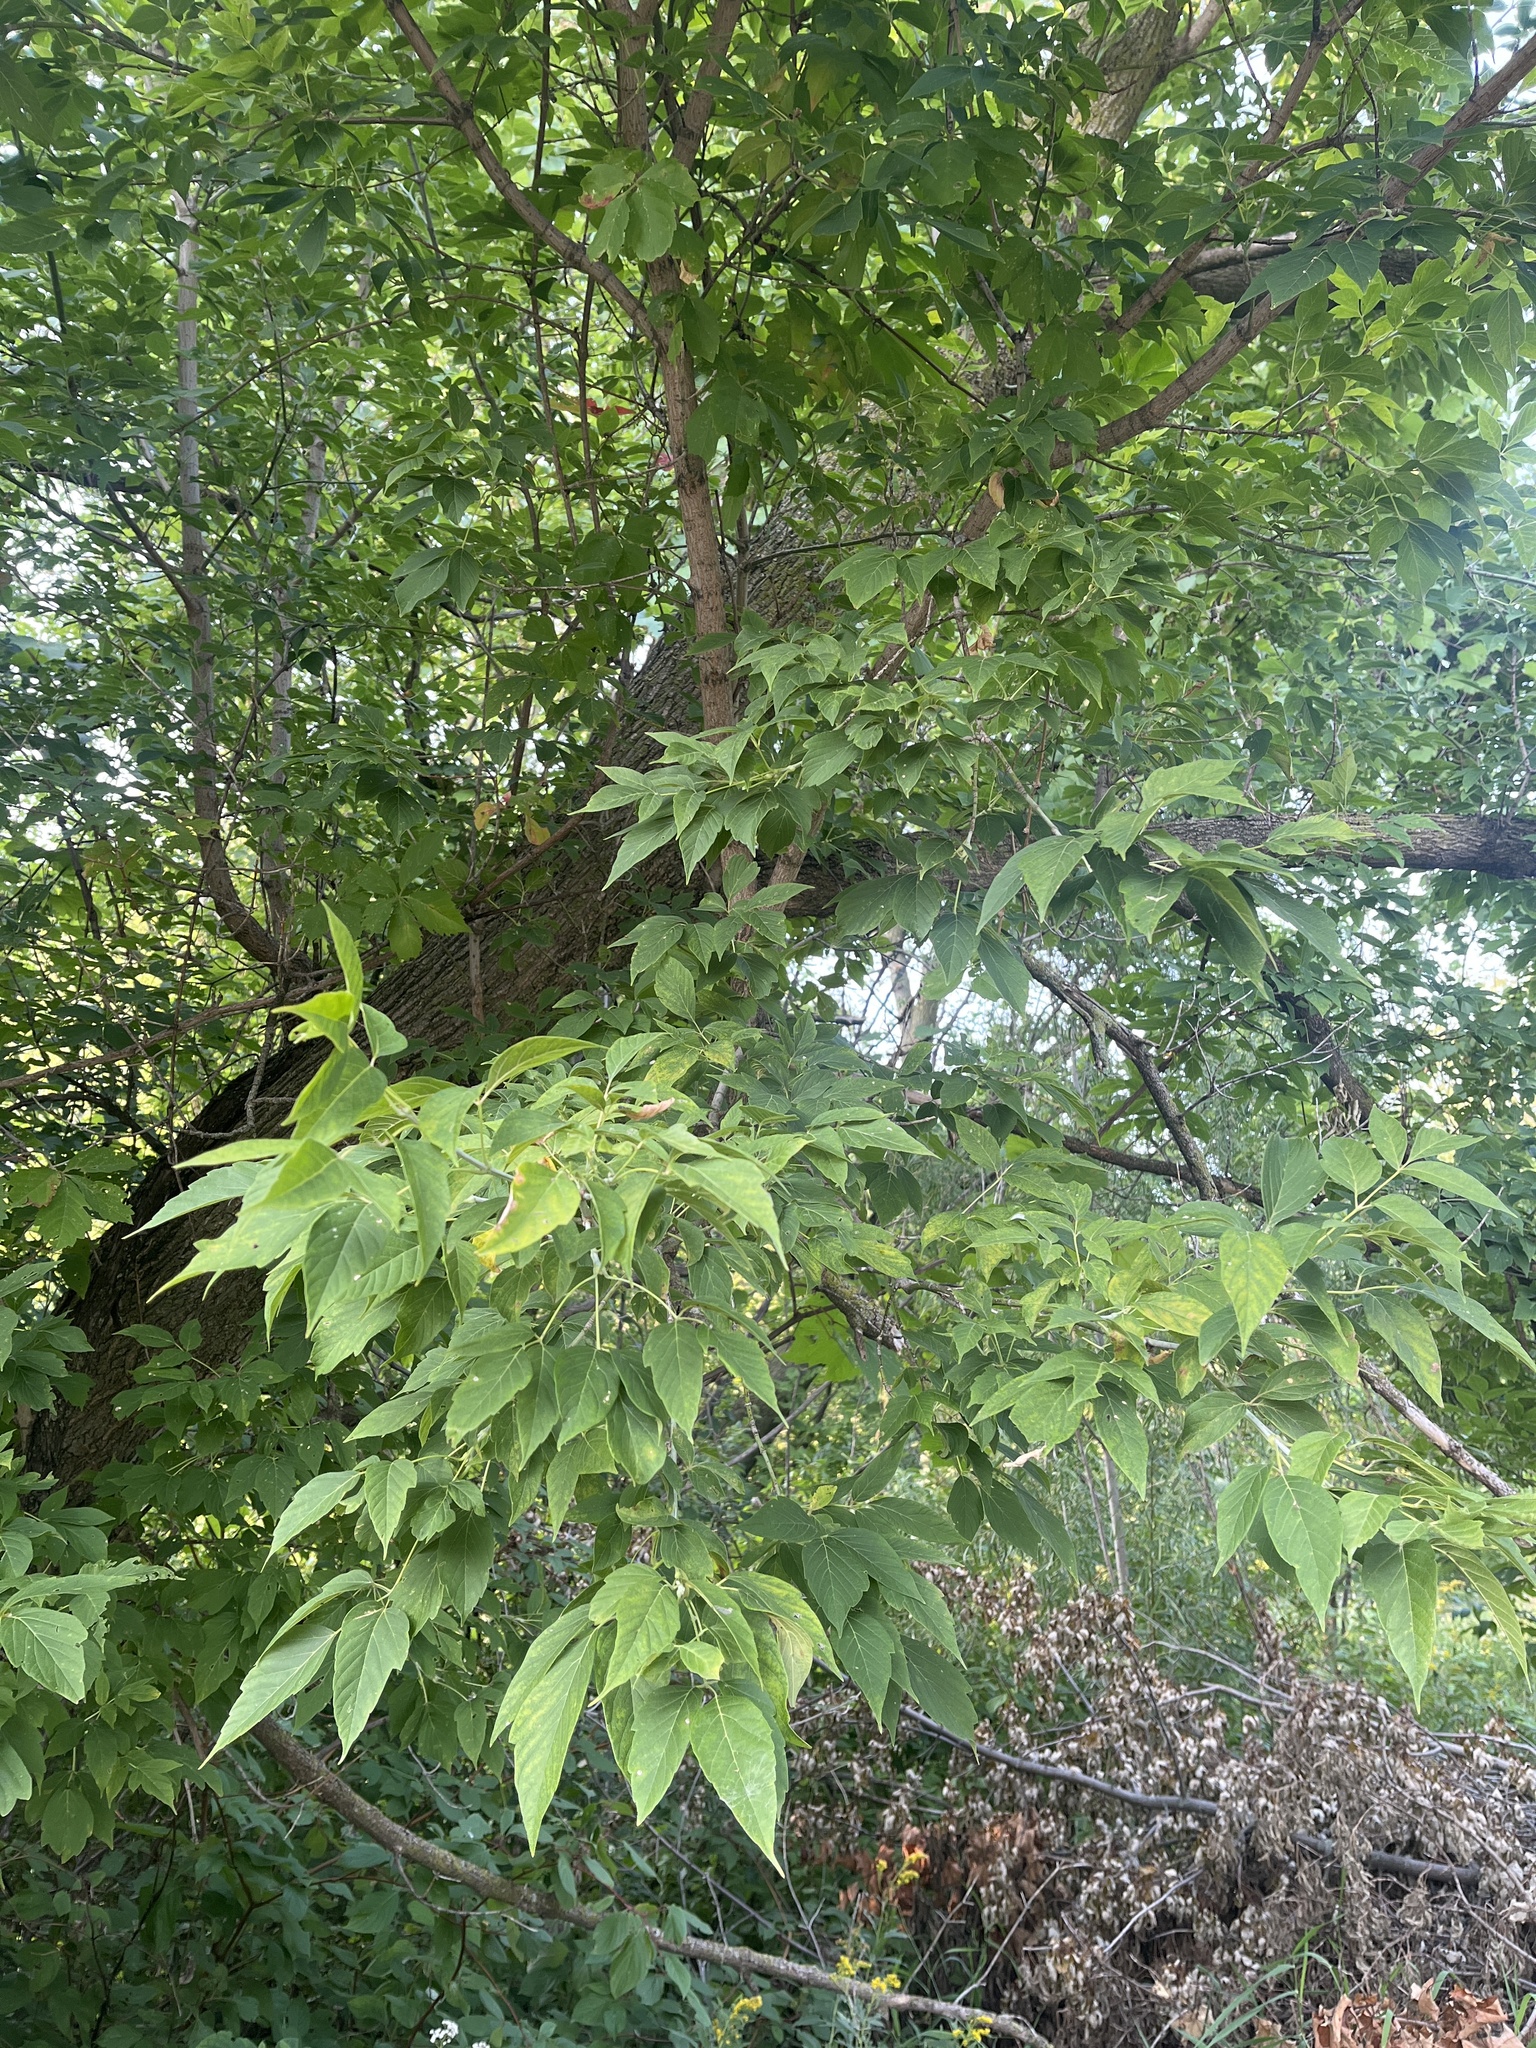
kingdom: Plantae
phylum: Tracheophyta
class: Magnoliopsida
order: Sapindales
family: Sapindaceae
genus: Acer
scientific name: Acer negundo
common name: Ashleaf maple
